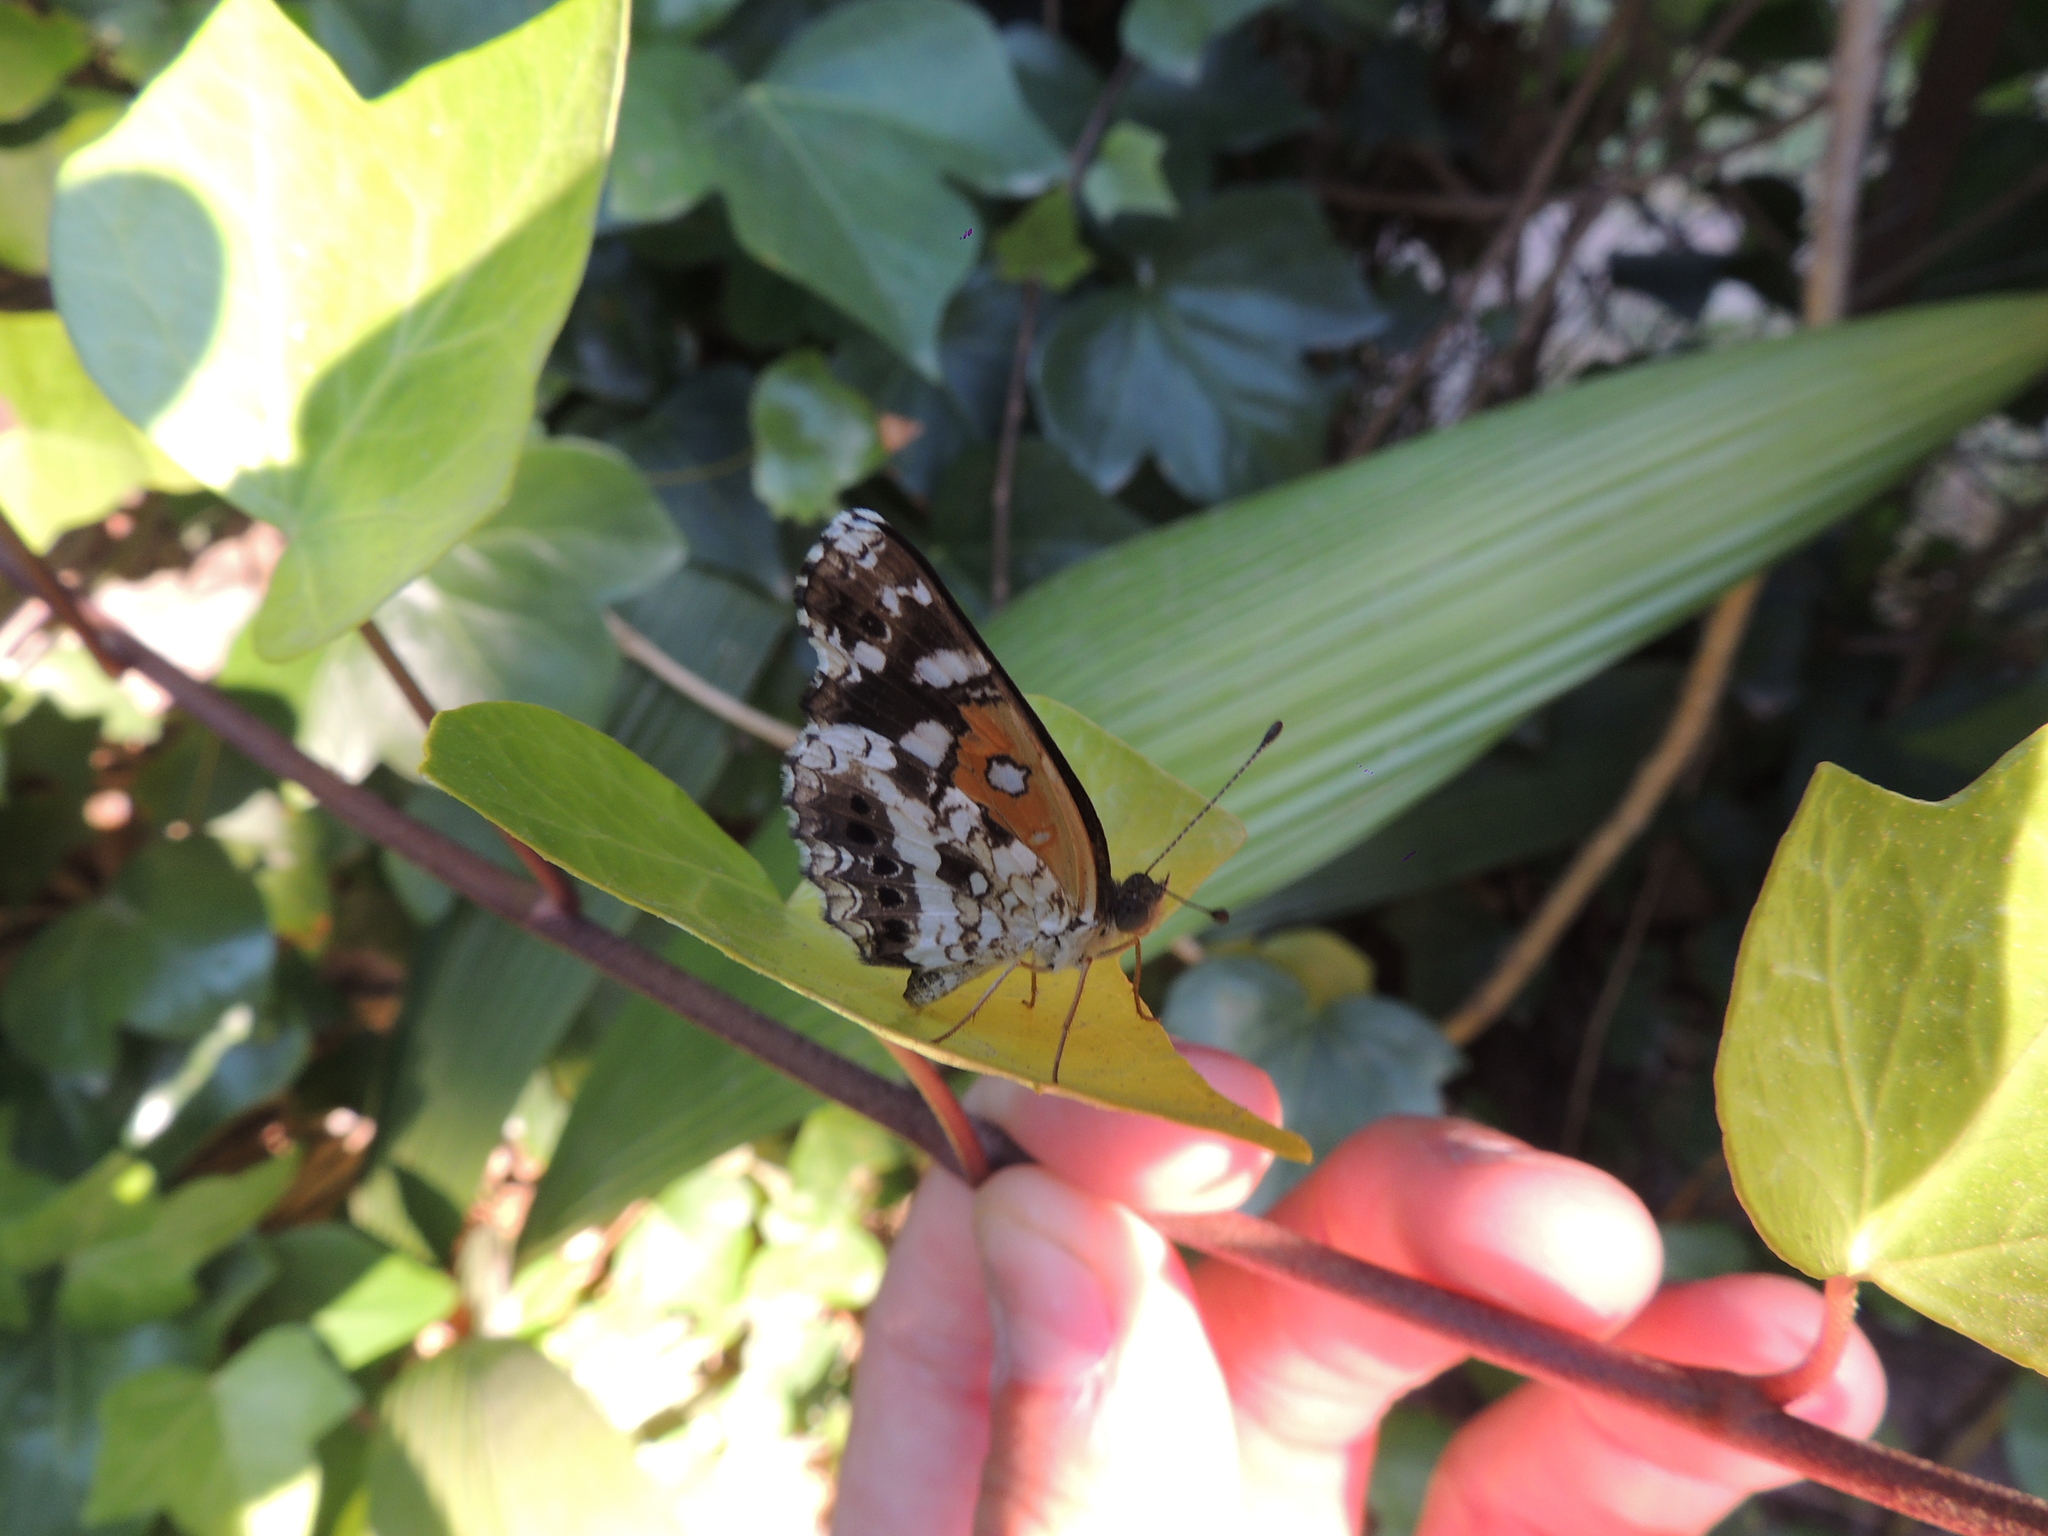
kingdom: Animalia
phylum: Arthropoda
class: Insecta
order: Lepidoptera
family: Nymphalidae
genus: Ortilia
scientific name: Ortilia ithra
